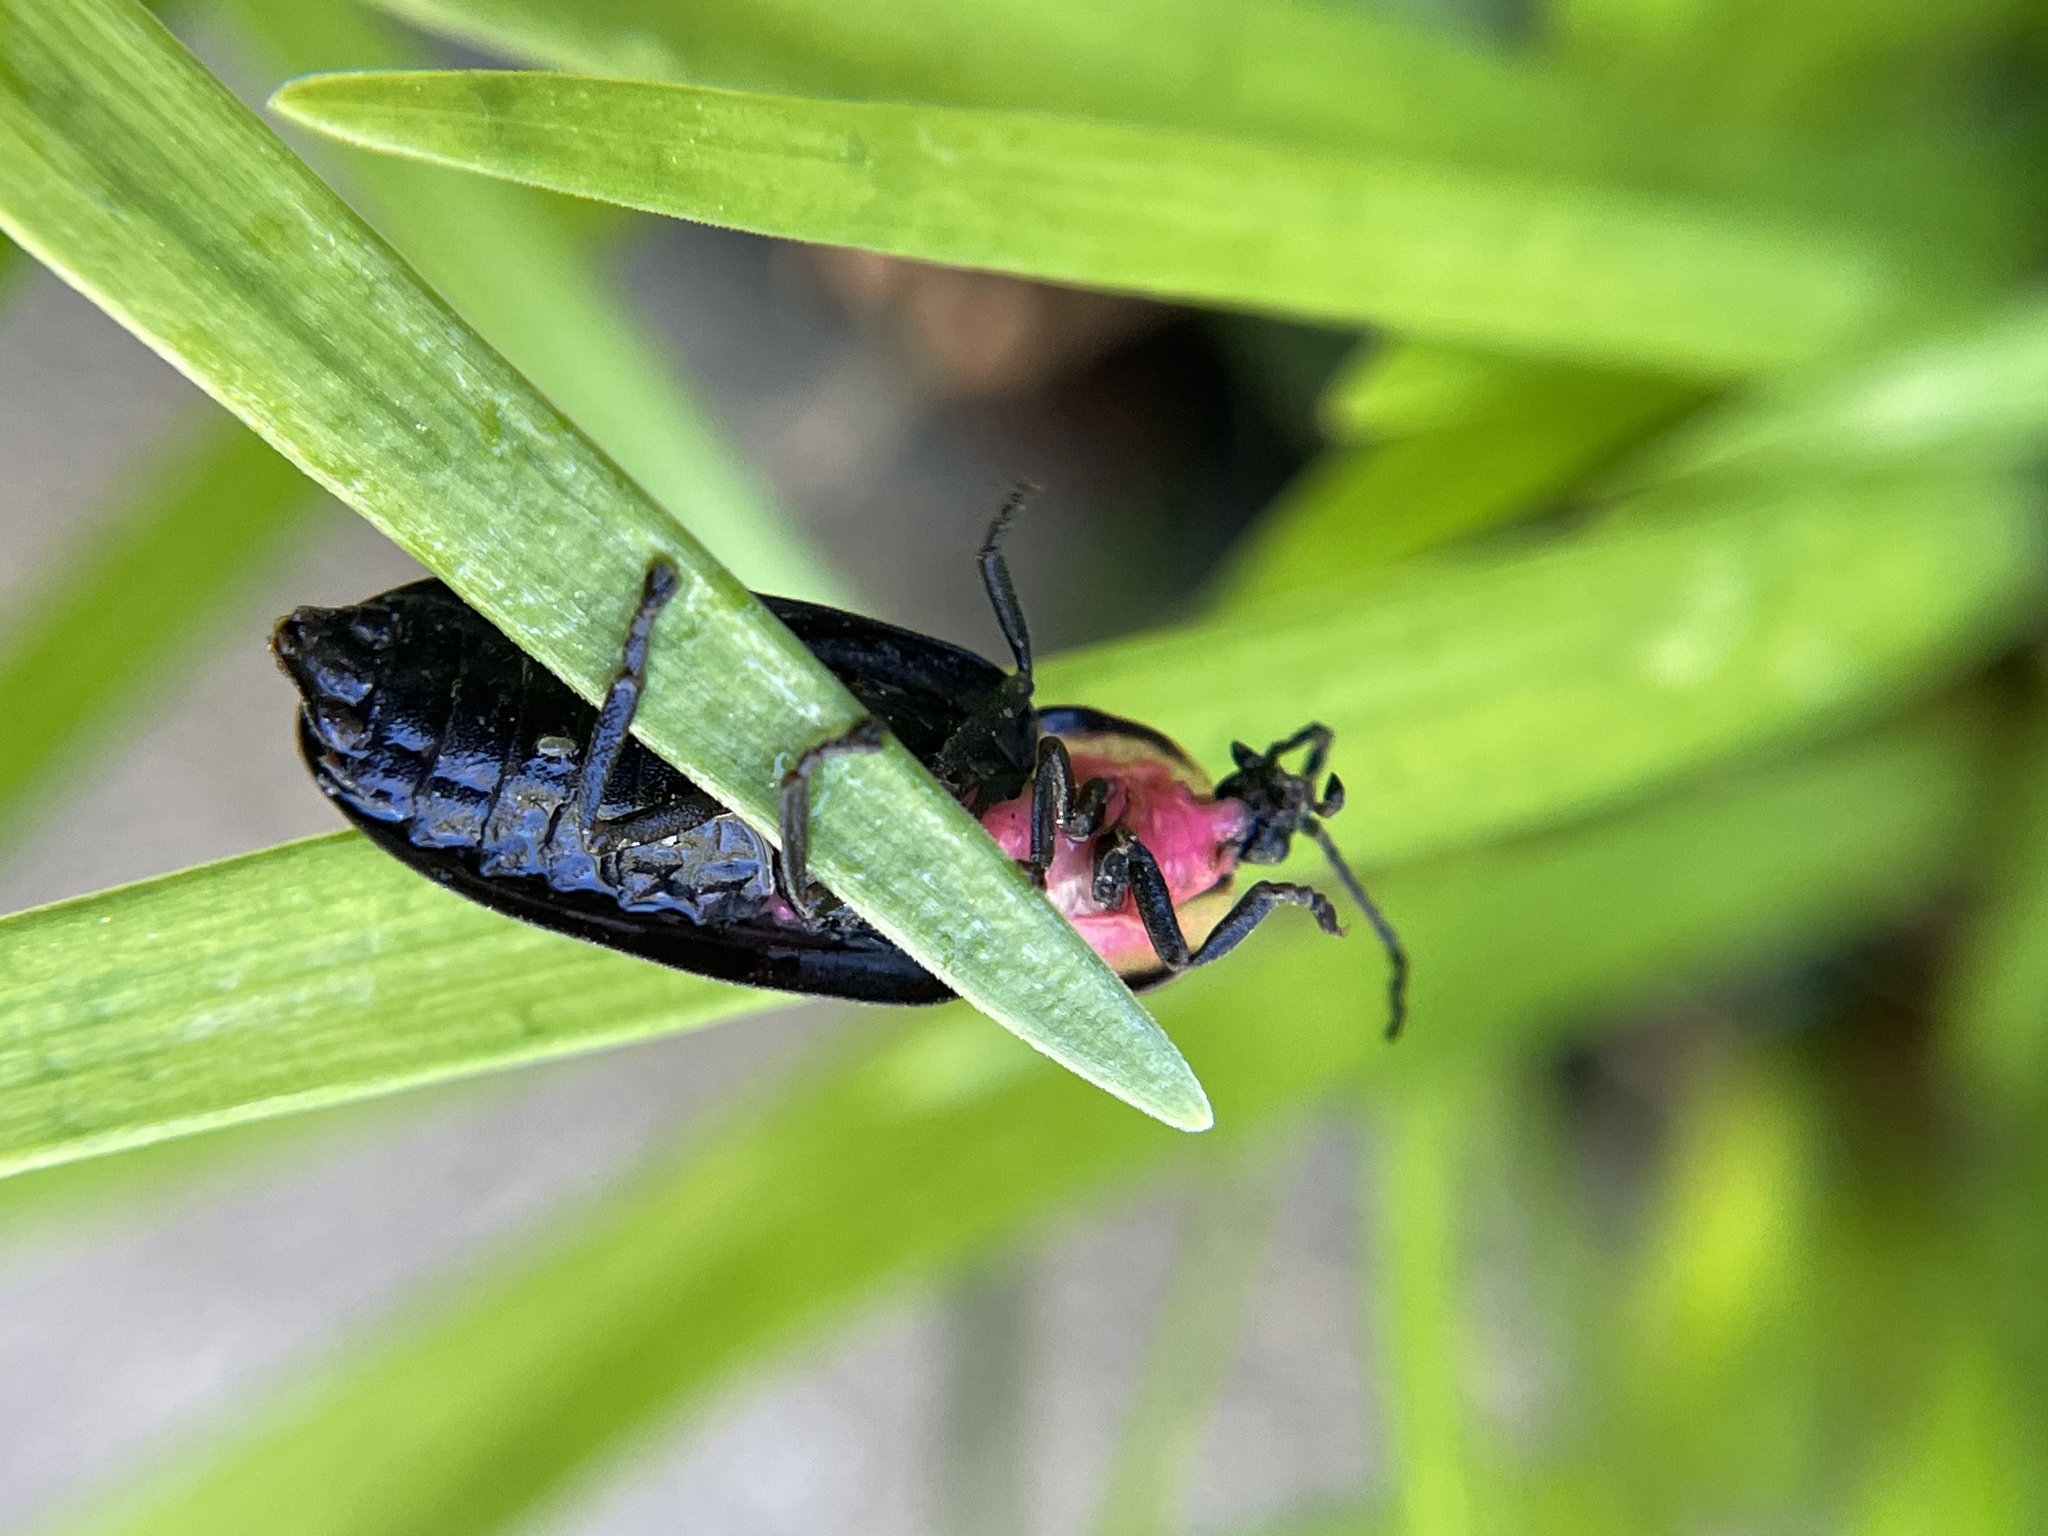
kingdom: Animalia
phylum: Arthropoda
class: Insecta
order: Coleoptera
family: Lampyridae
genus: Photinus
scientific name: Photinus corrusca
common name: Winter firefly
